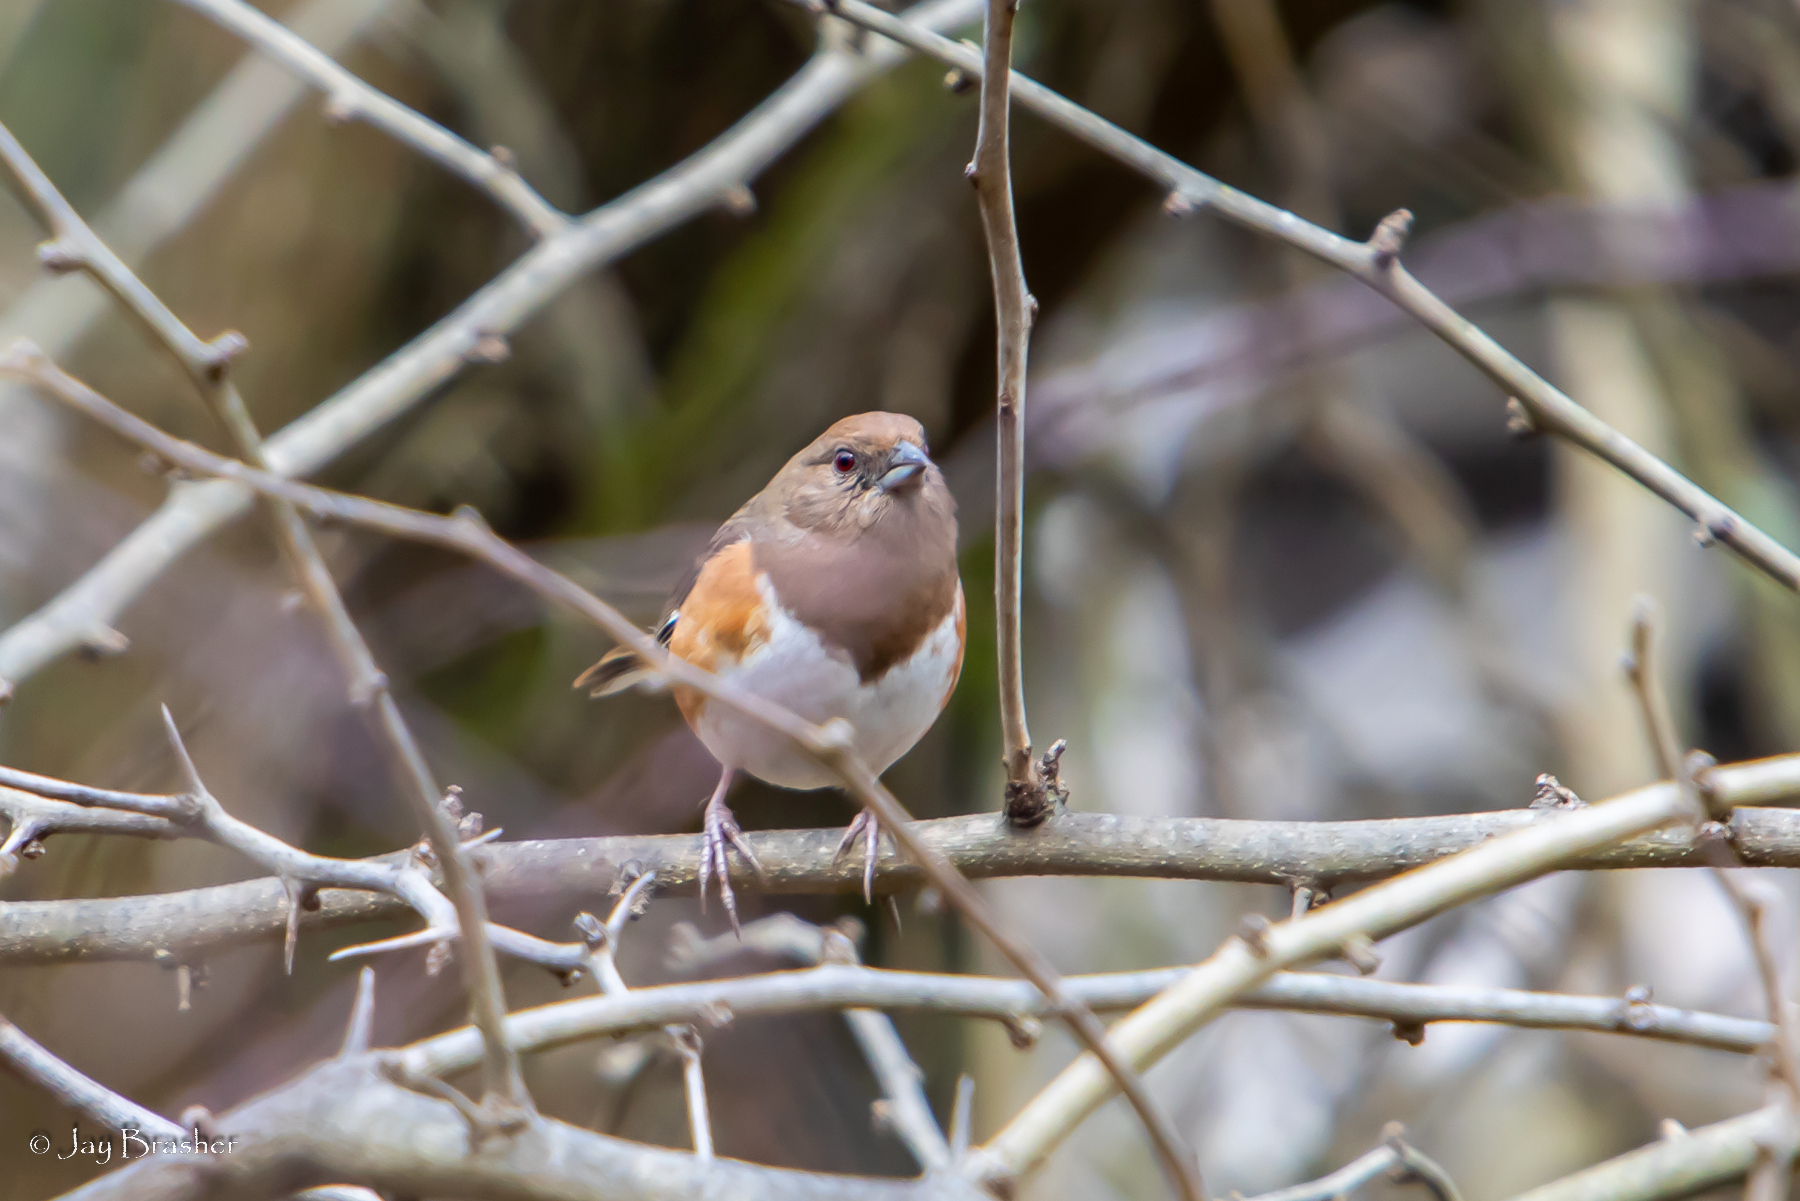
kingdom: Animalia
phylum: Chordata
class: Aves
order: Passeriformes
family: Passerellidae
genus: Pipilo
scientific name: Pipilo erythrophthalmus
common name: Eastern towhee
